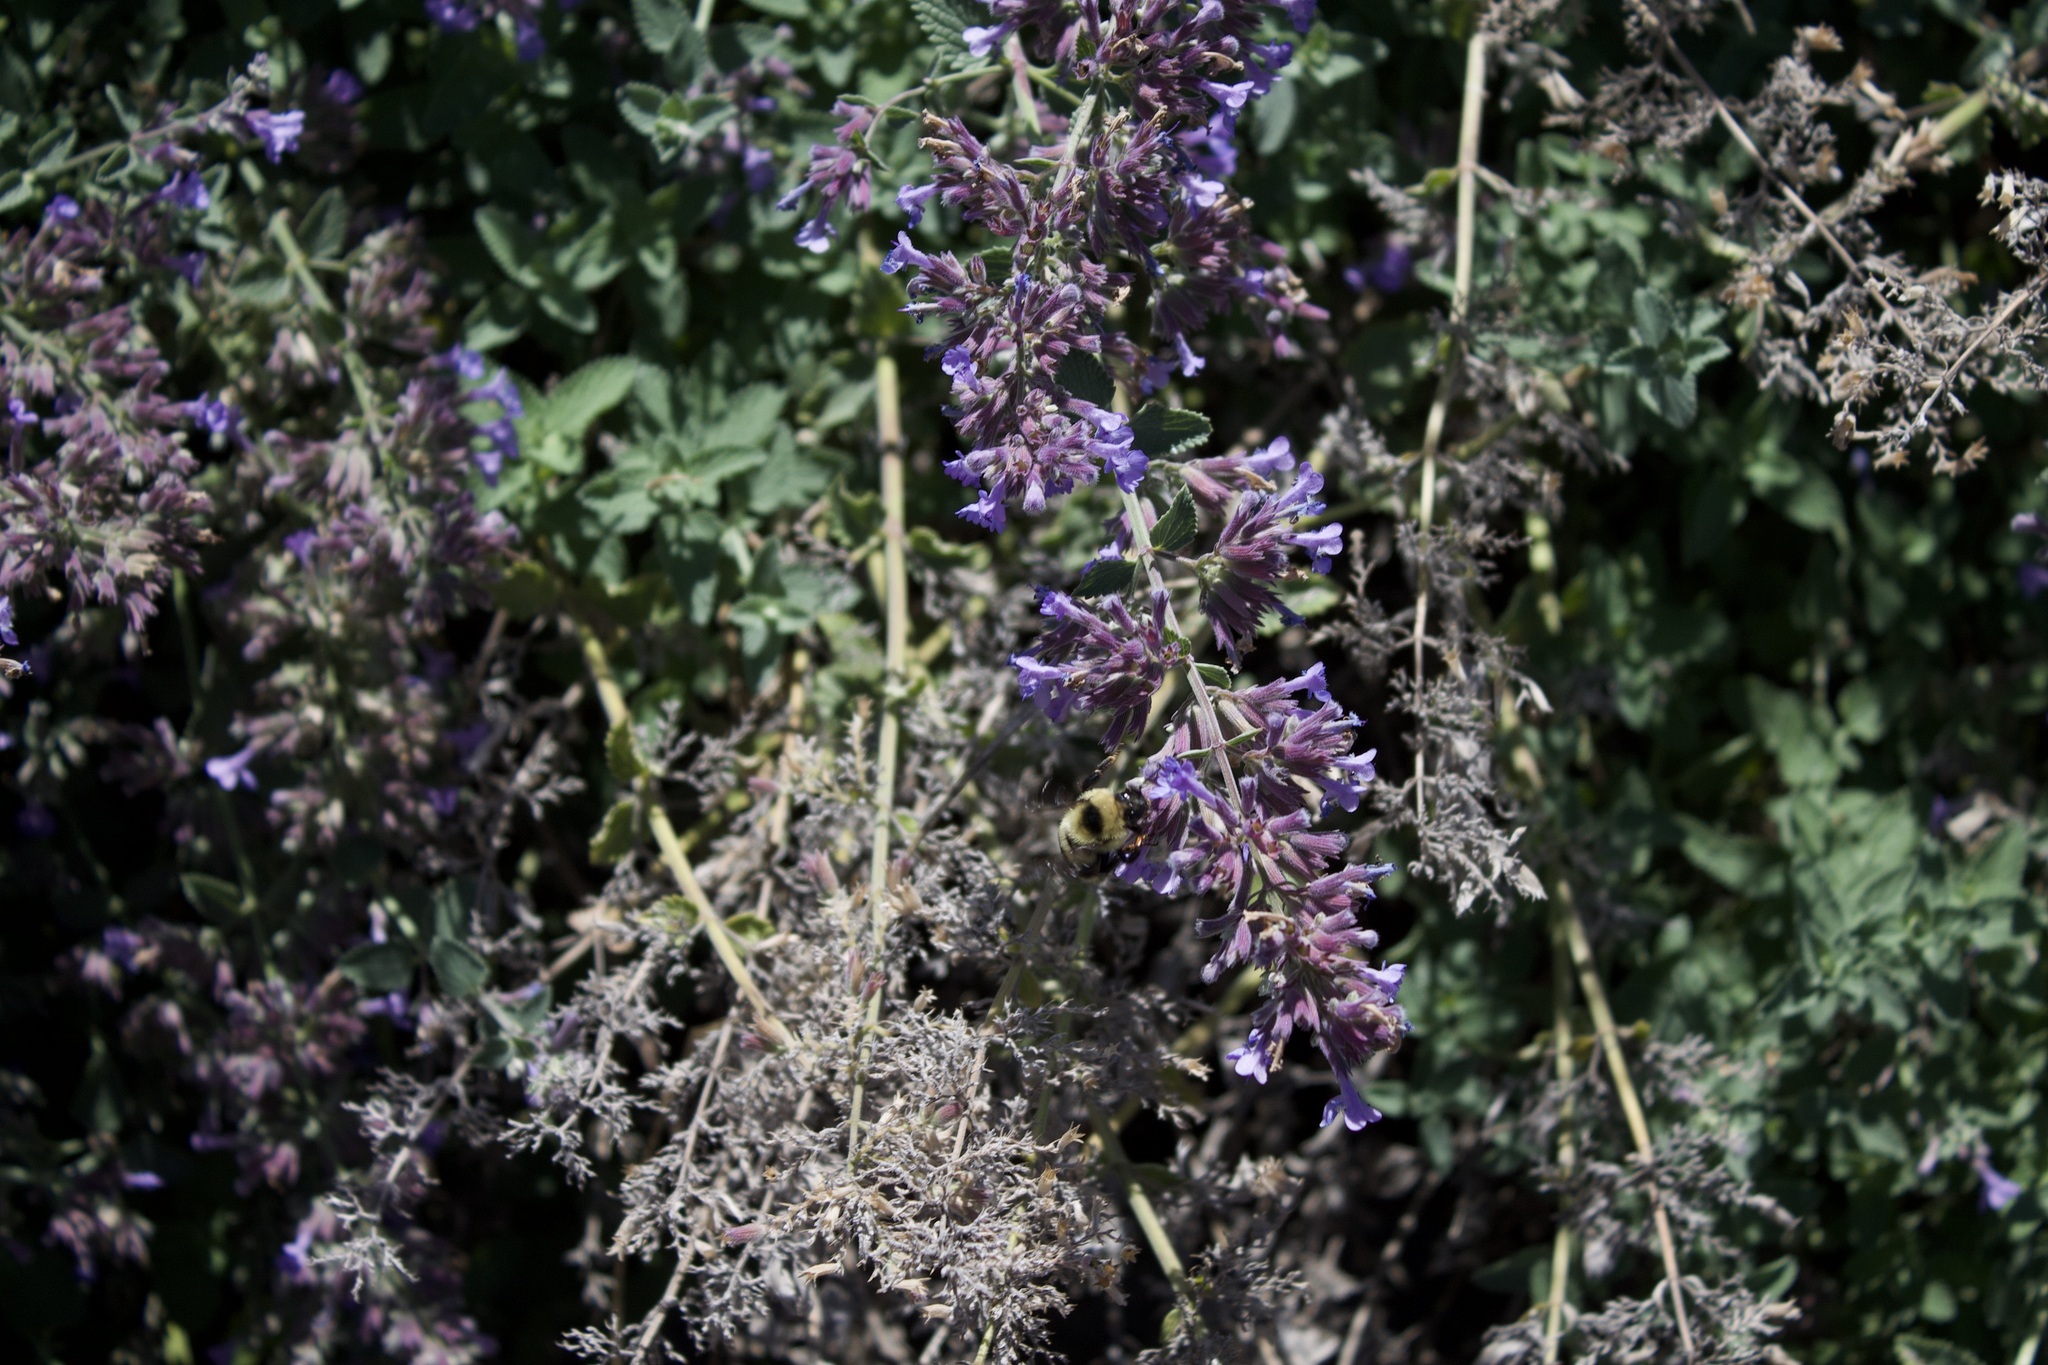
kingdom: Animalia
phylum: Arthropoda
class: Insecta
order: Hymenoptera
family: Apidae
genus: Bombus
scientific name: Bombus rufocinctus
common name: Red-belted bumble bee
